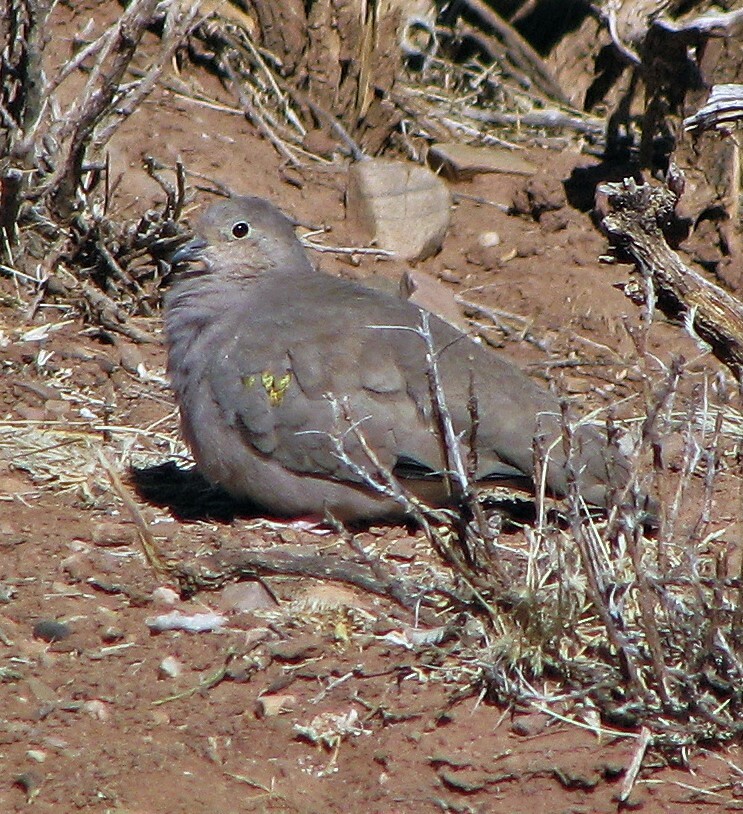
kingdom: Animalia
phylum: Chordata
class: Aves
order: Columbiformes
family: Columbidae
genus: Metriopelia
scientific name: Metriopelia aymara
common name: Golden-spotted ground dove
